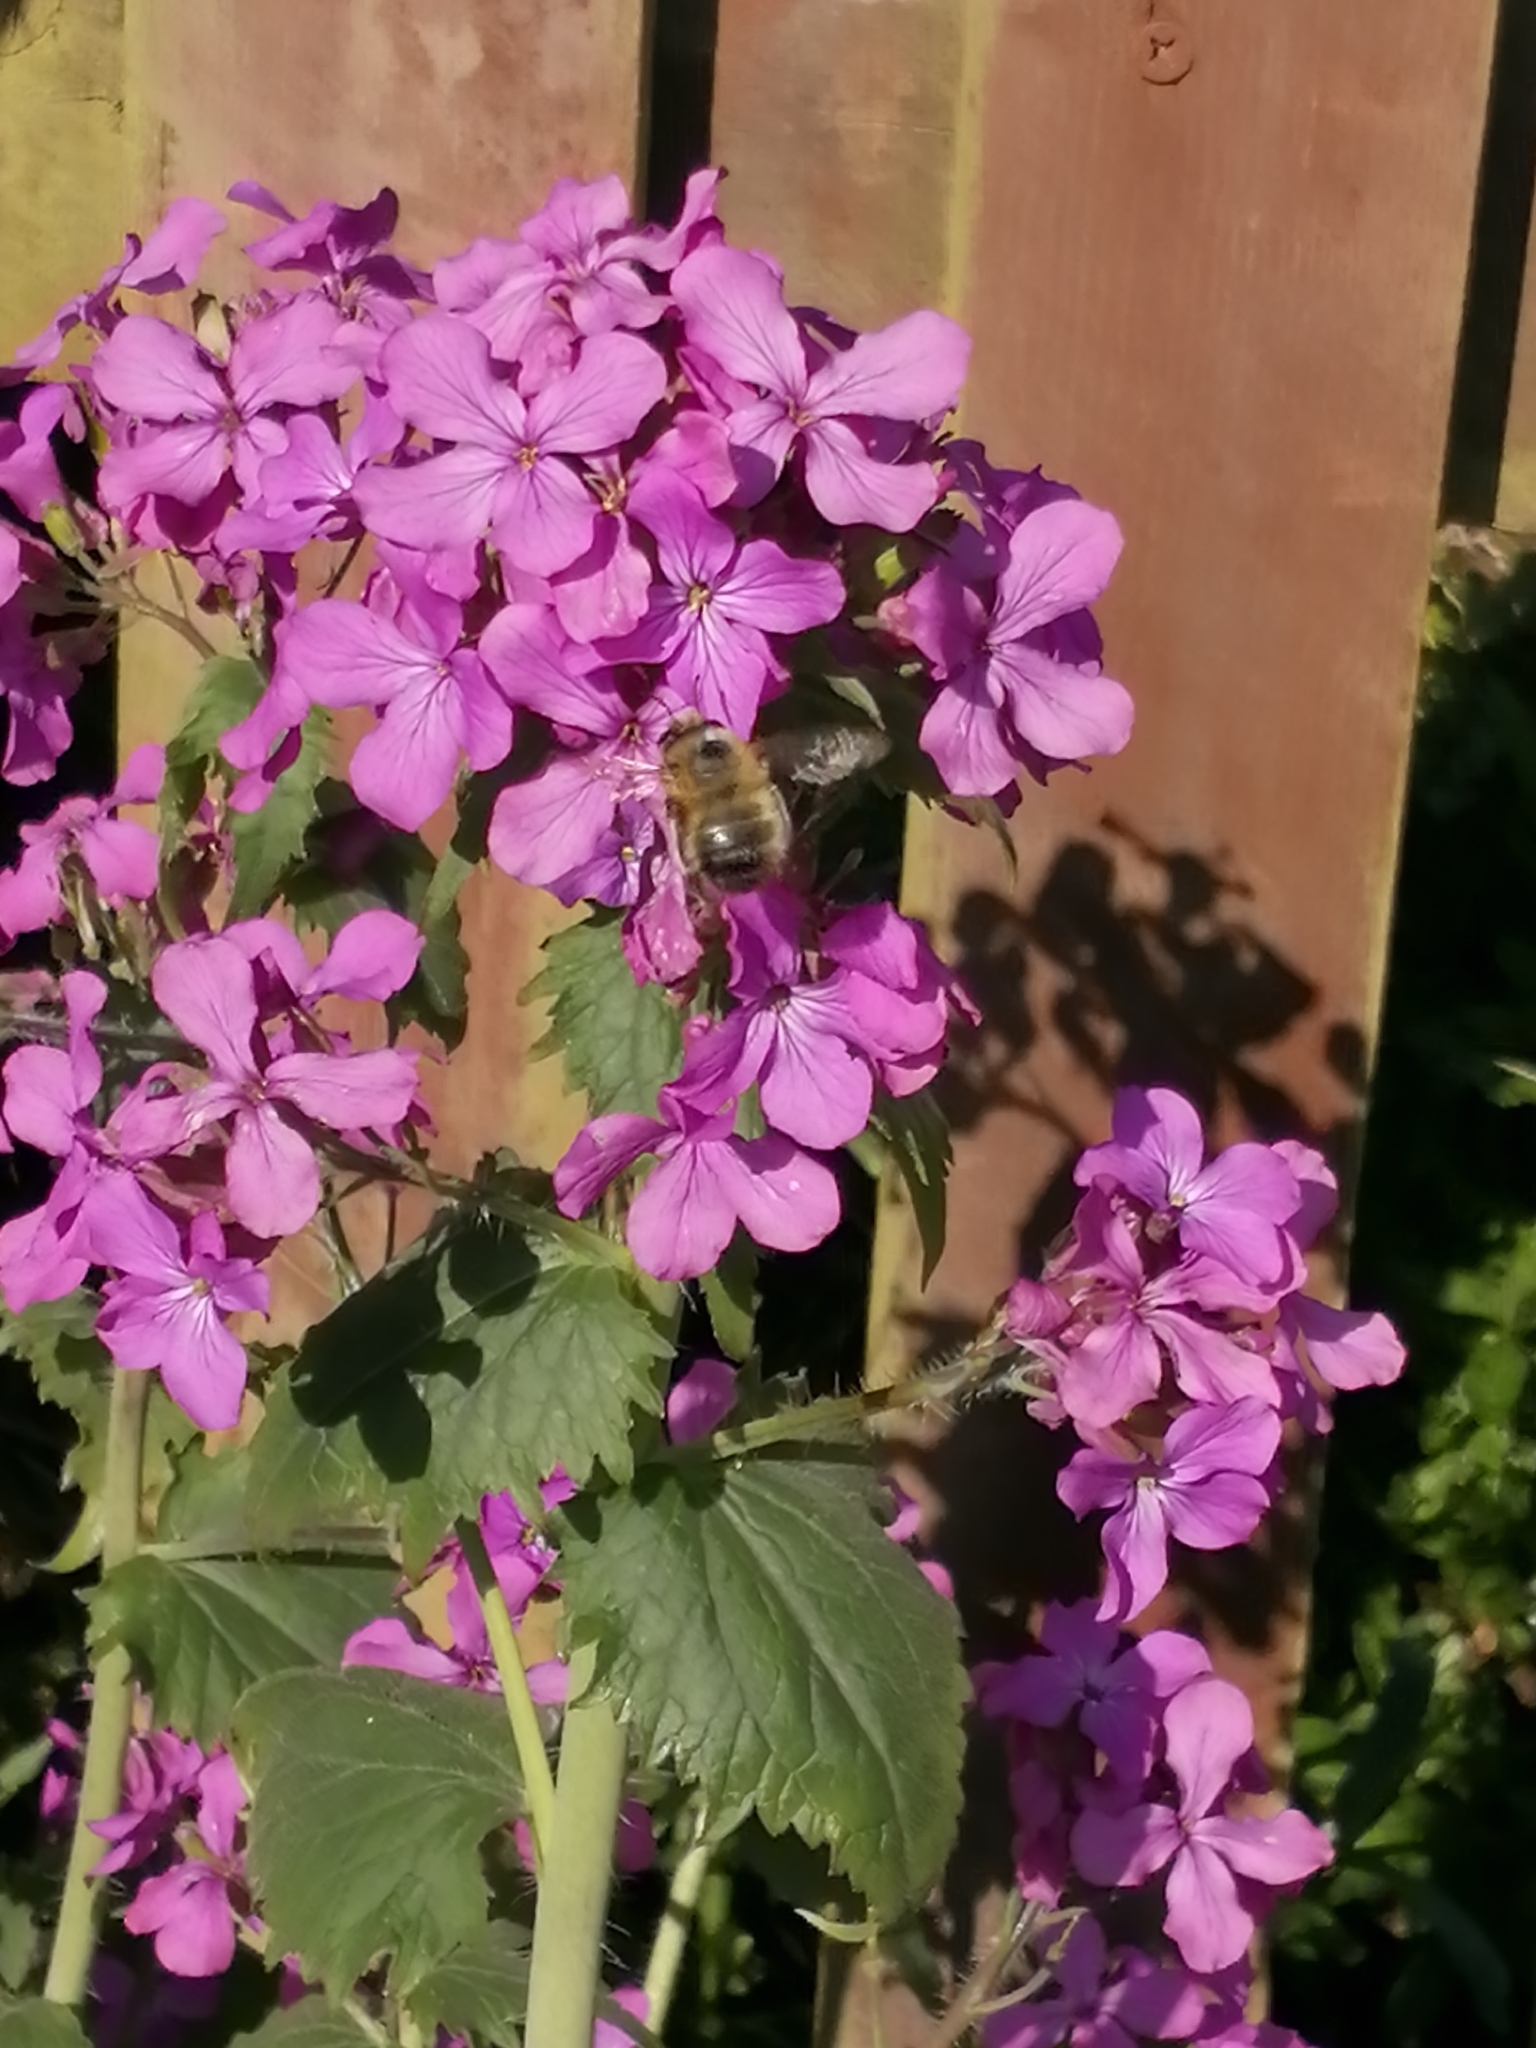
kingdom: Animalia
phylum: Arthropoda
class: Insecta
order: Hymenoptera
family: Apidae
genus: Anthophora
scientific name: Anthophora plumipes
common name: Hairy-footed flower bee
